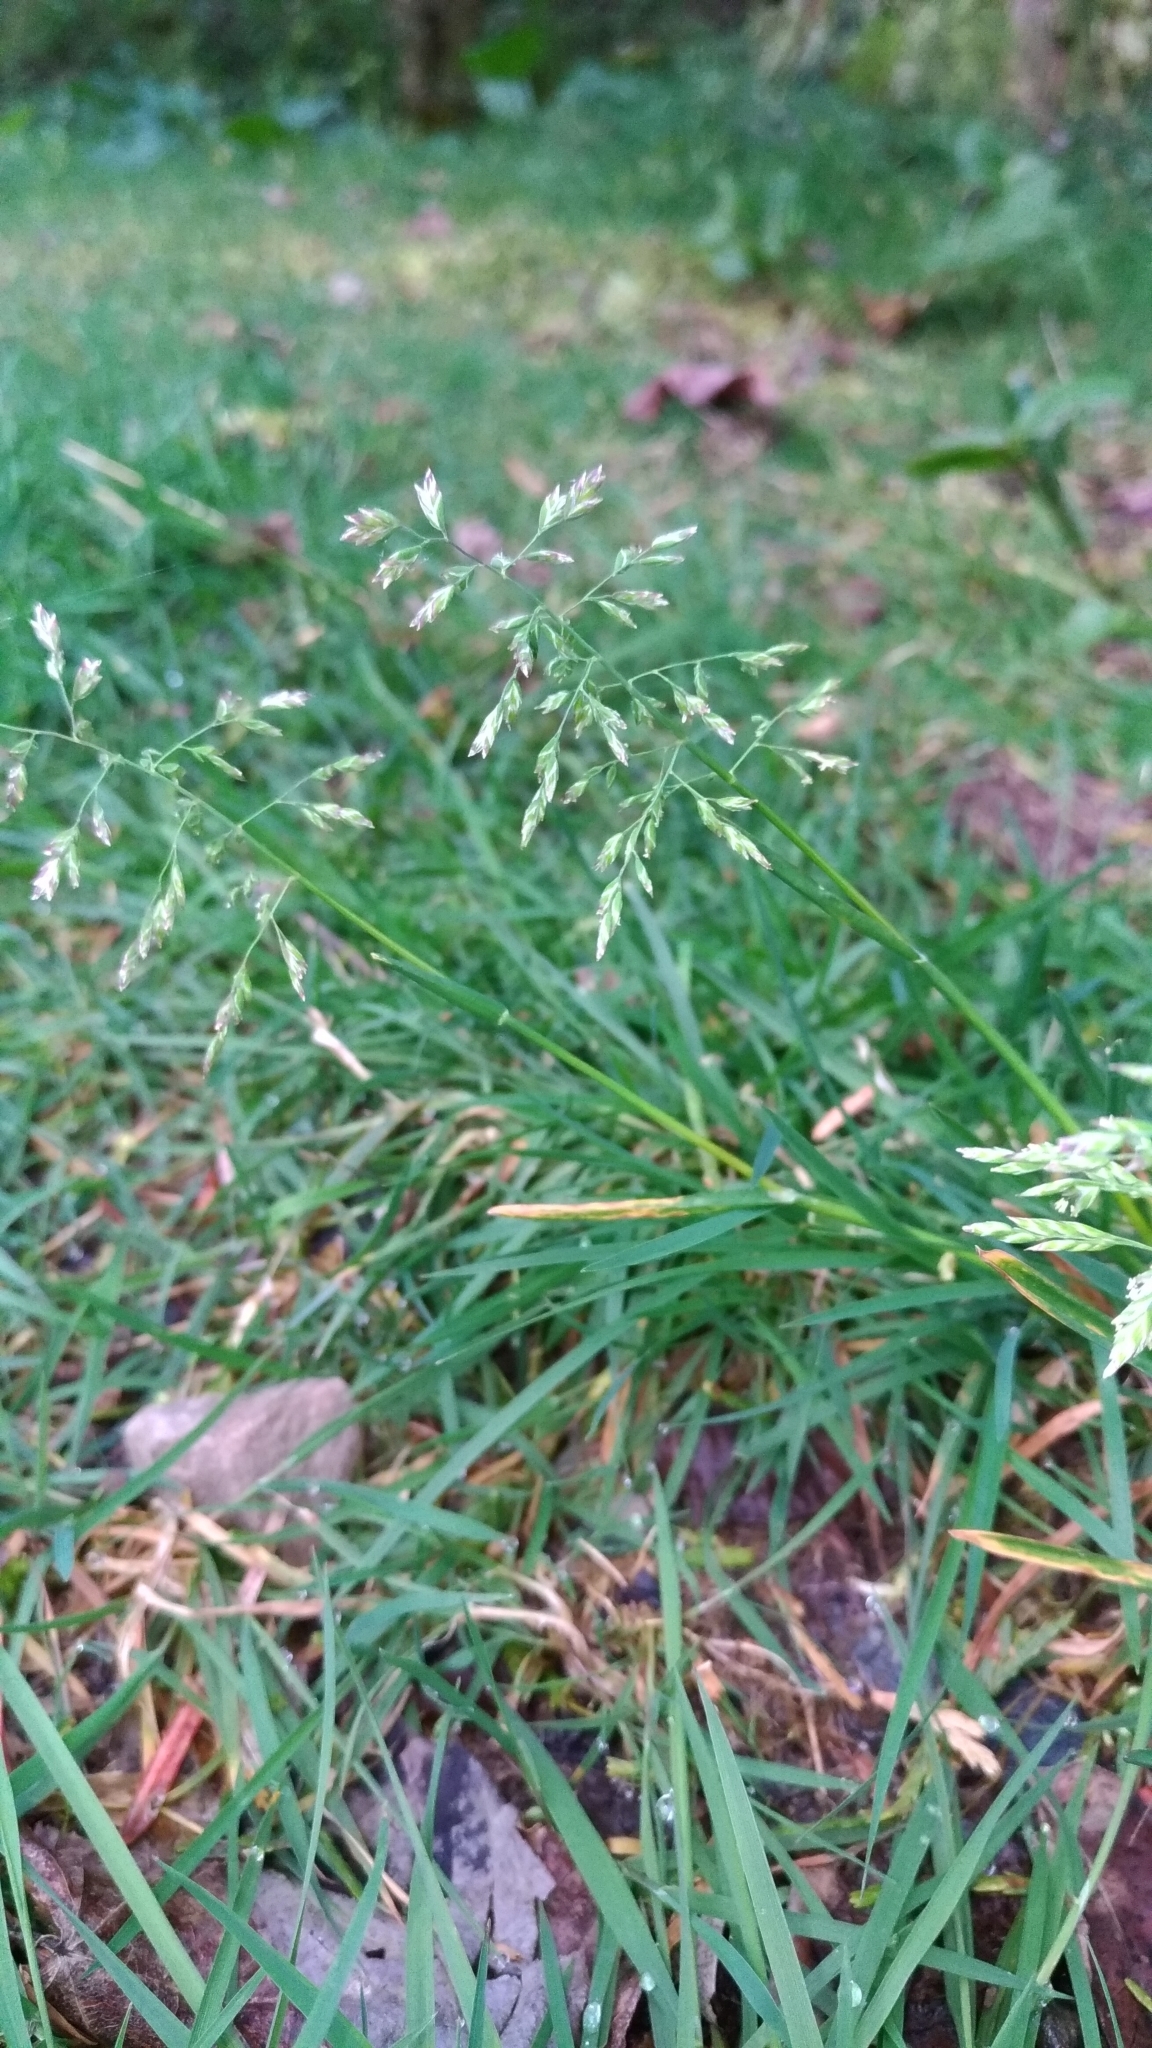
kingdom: Plantae
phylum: Tracheophyta
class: Liliopsida
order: Poales
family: Poaceae
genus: Poa
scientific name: Poa annua
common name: Annual bluegrass
